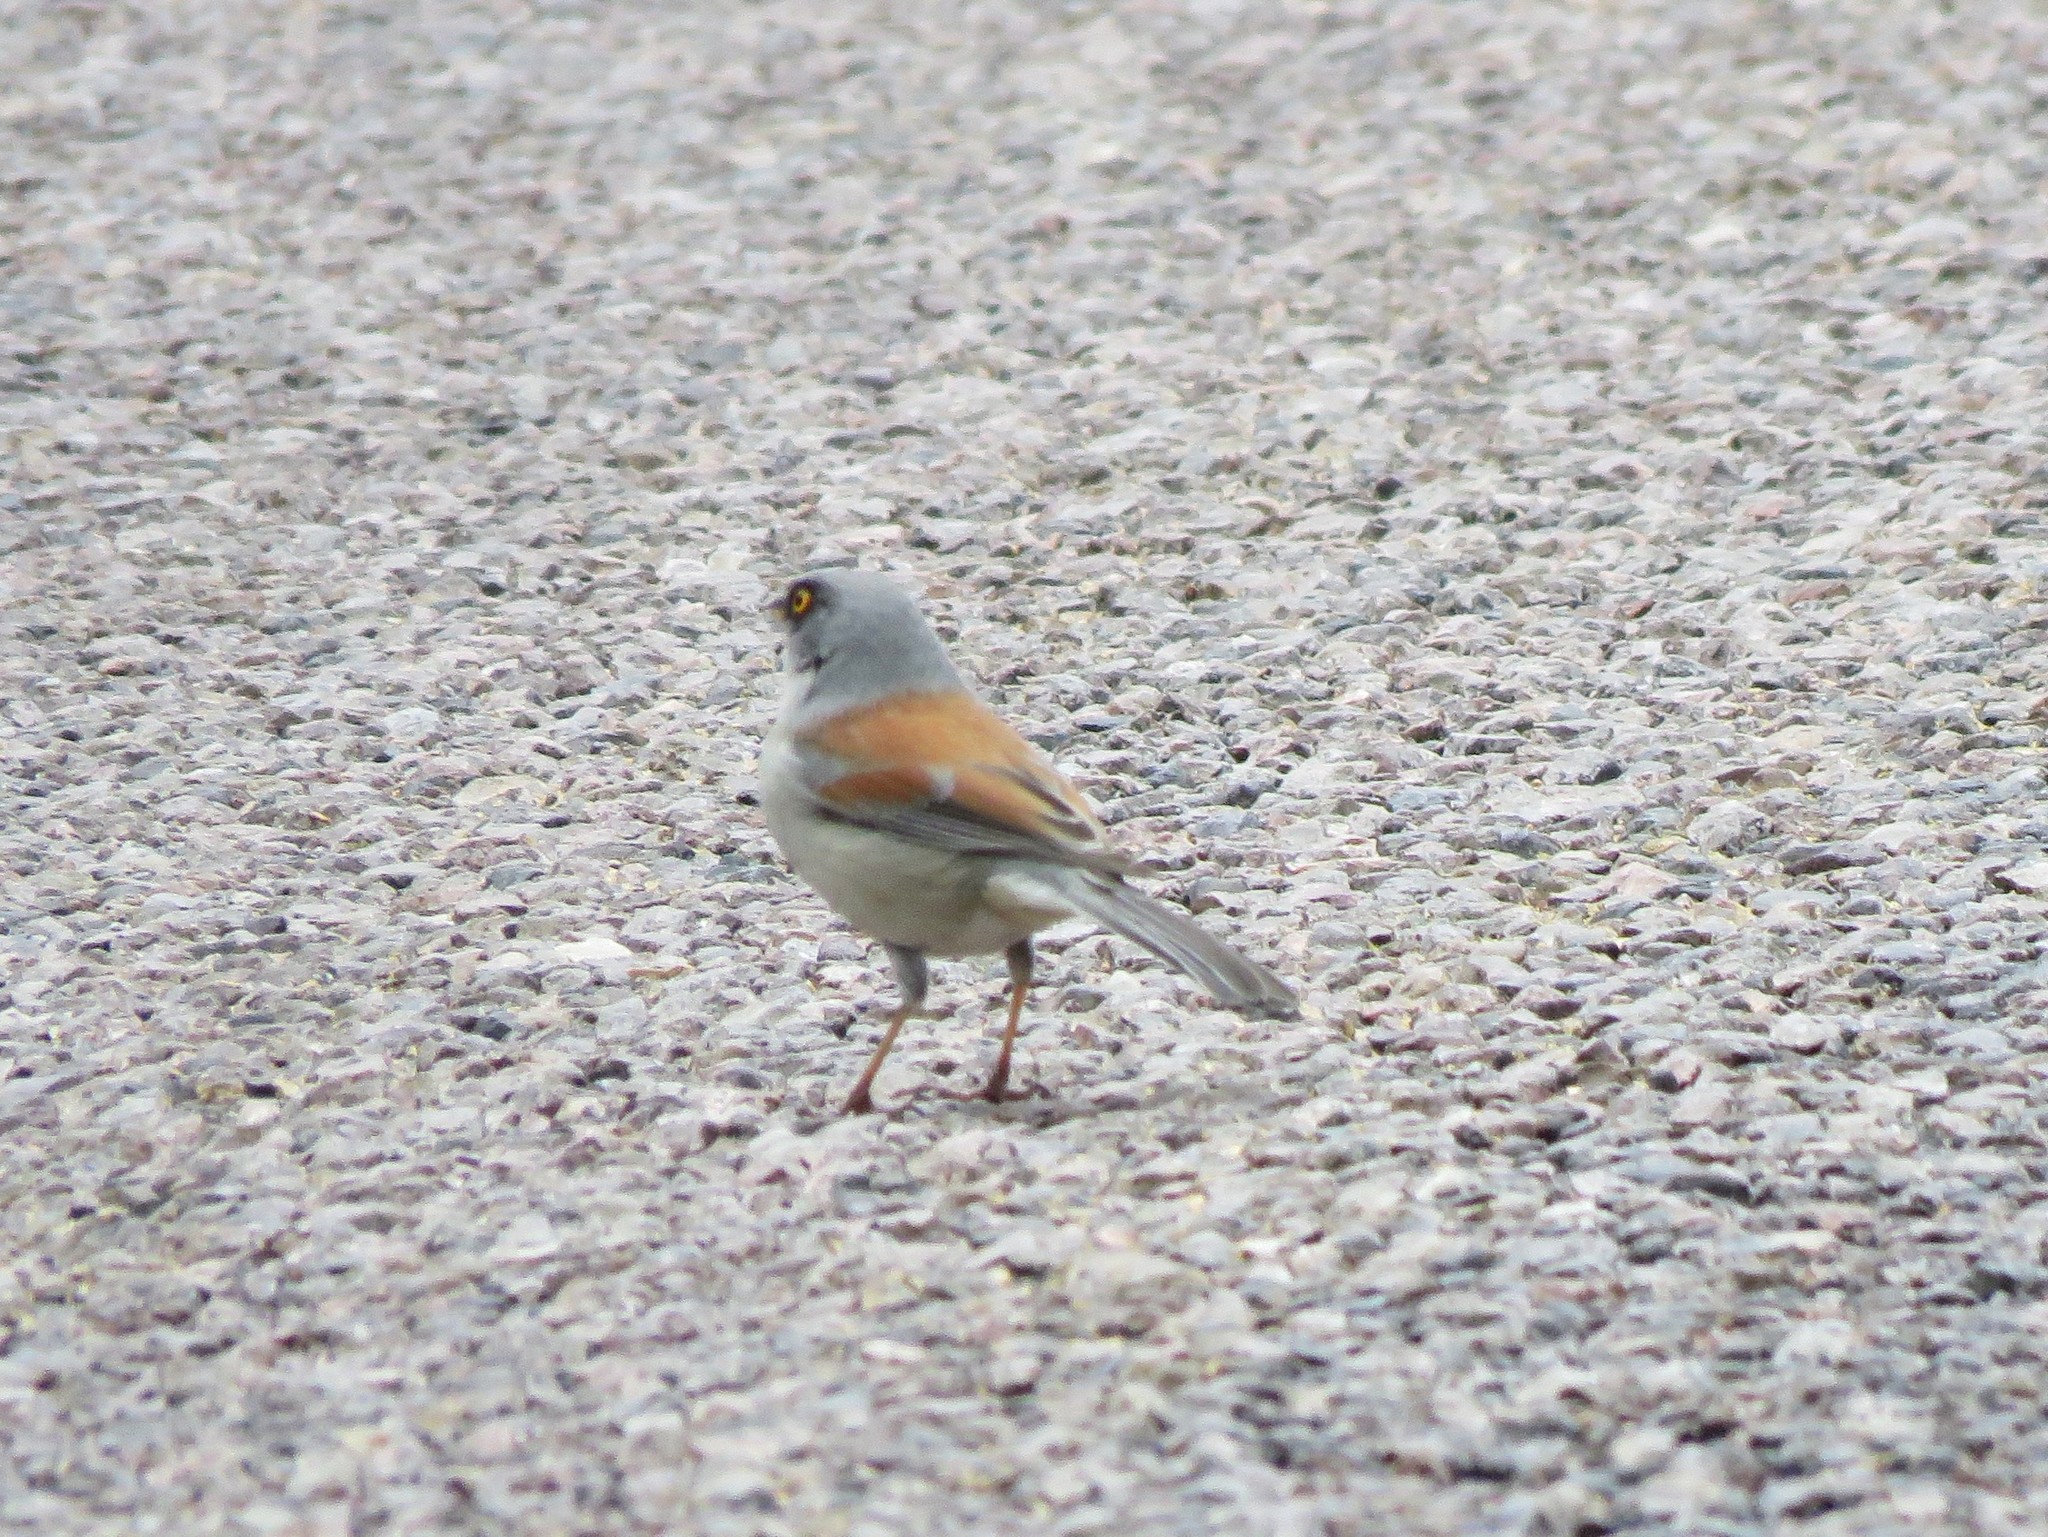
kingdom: Animalia
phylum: Chordata
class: Aves
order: Passeriformes
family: Passerellidae
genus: Junco
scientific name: Junco phaeonotus
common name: Yellow-eyed junco
